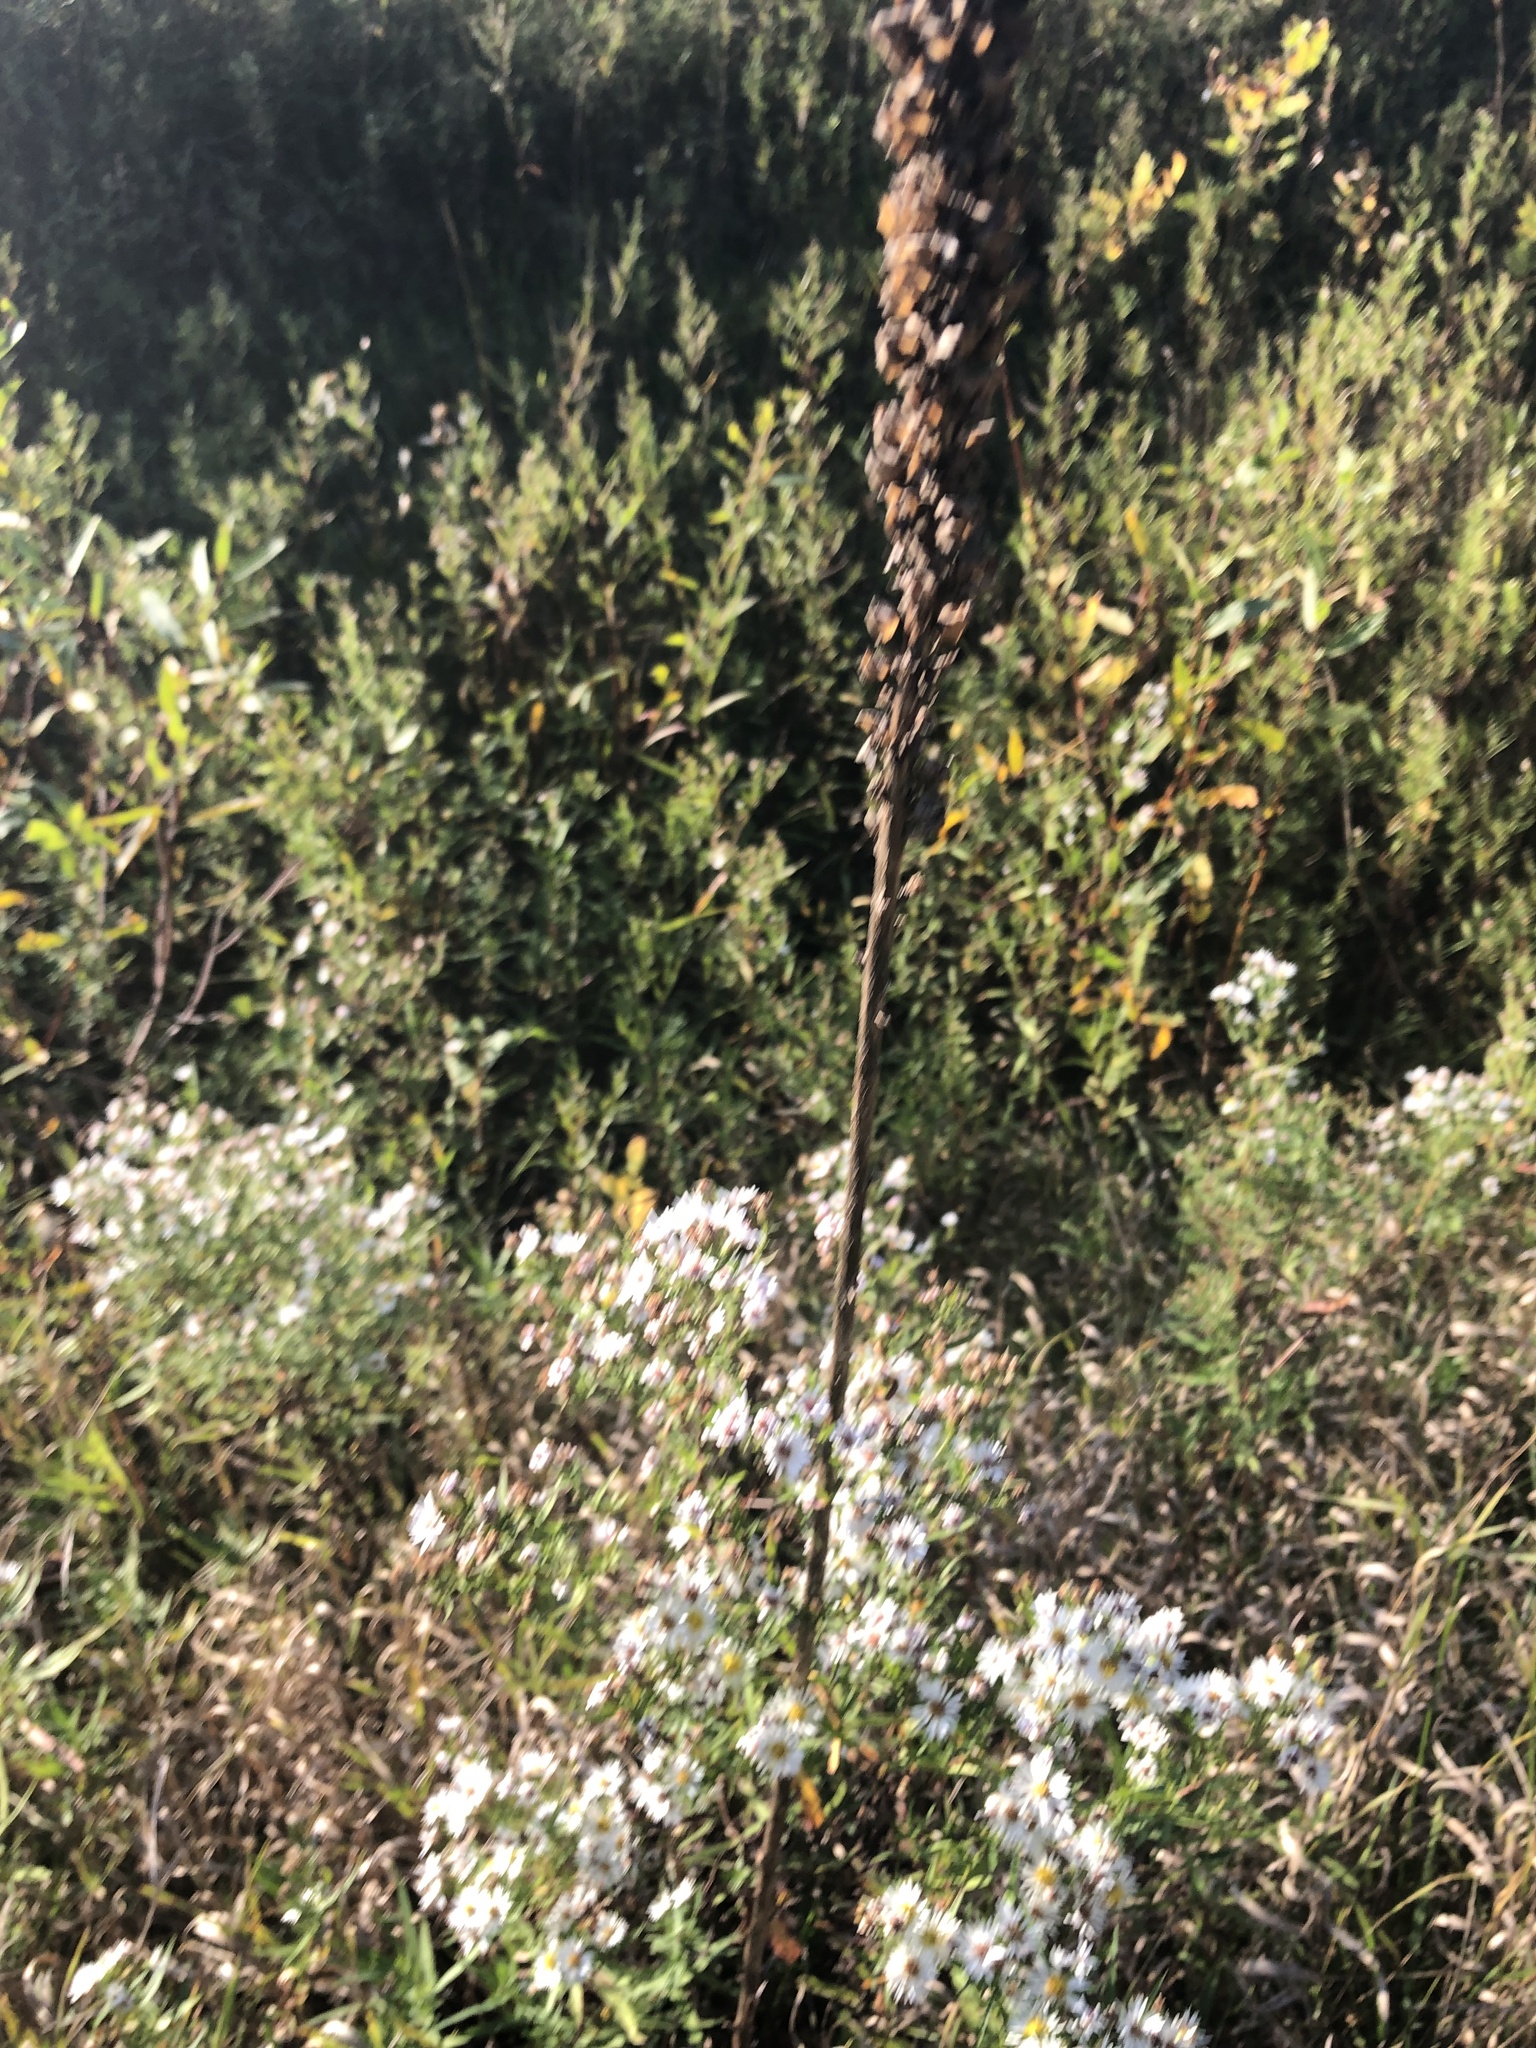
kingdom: Plantae
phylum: Tracheophyta
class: Magnoliopsida
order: Lamiales
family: Scrophulariaceae
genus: Verbascum
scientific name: Verbascum thapsus
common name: Common mullein
